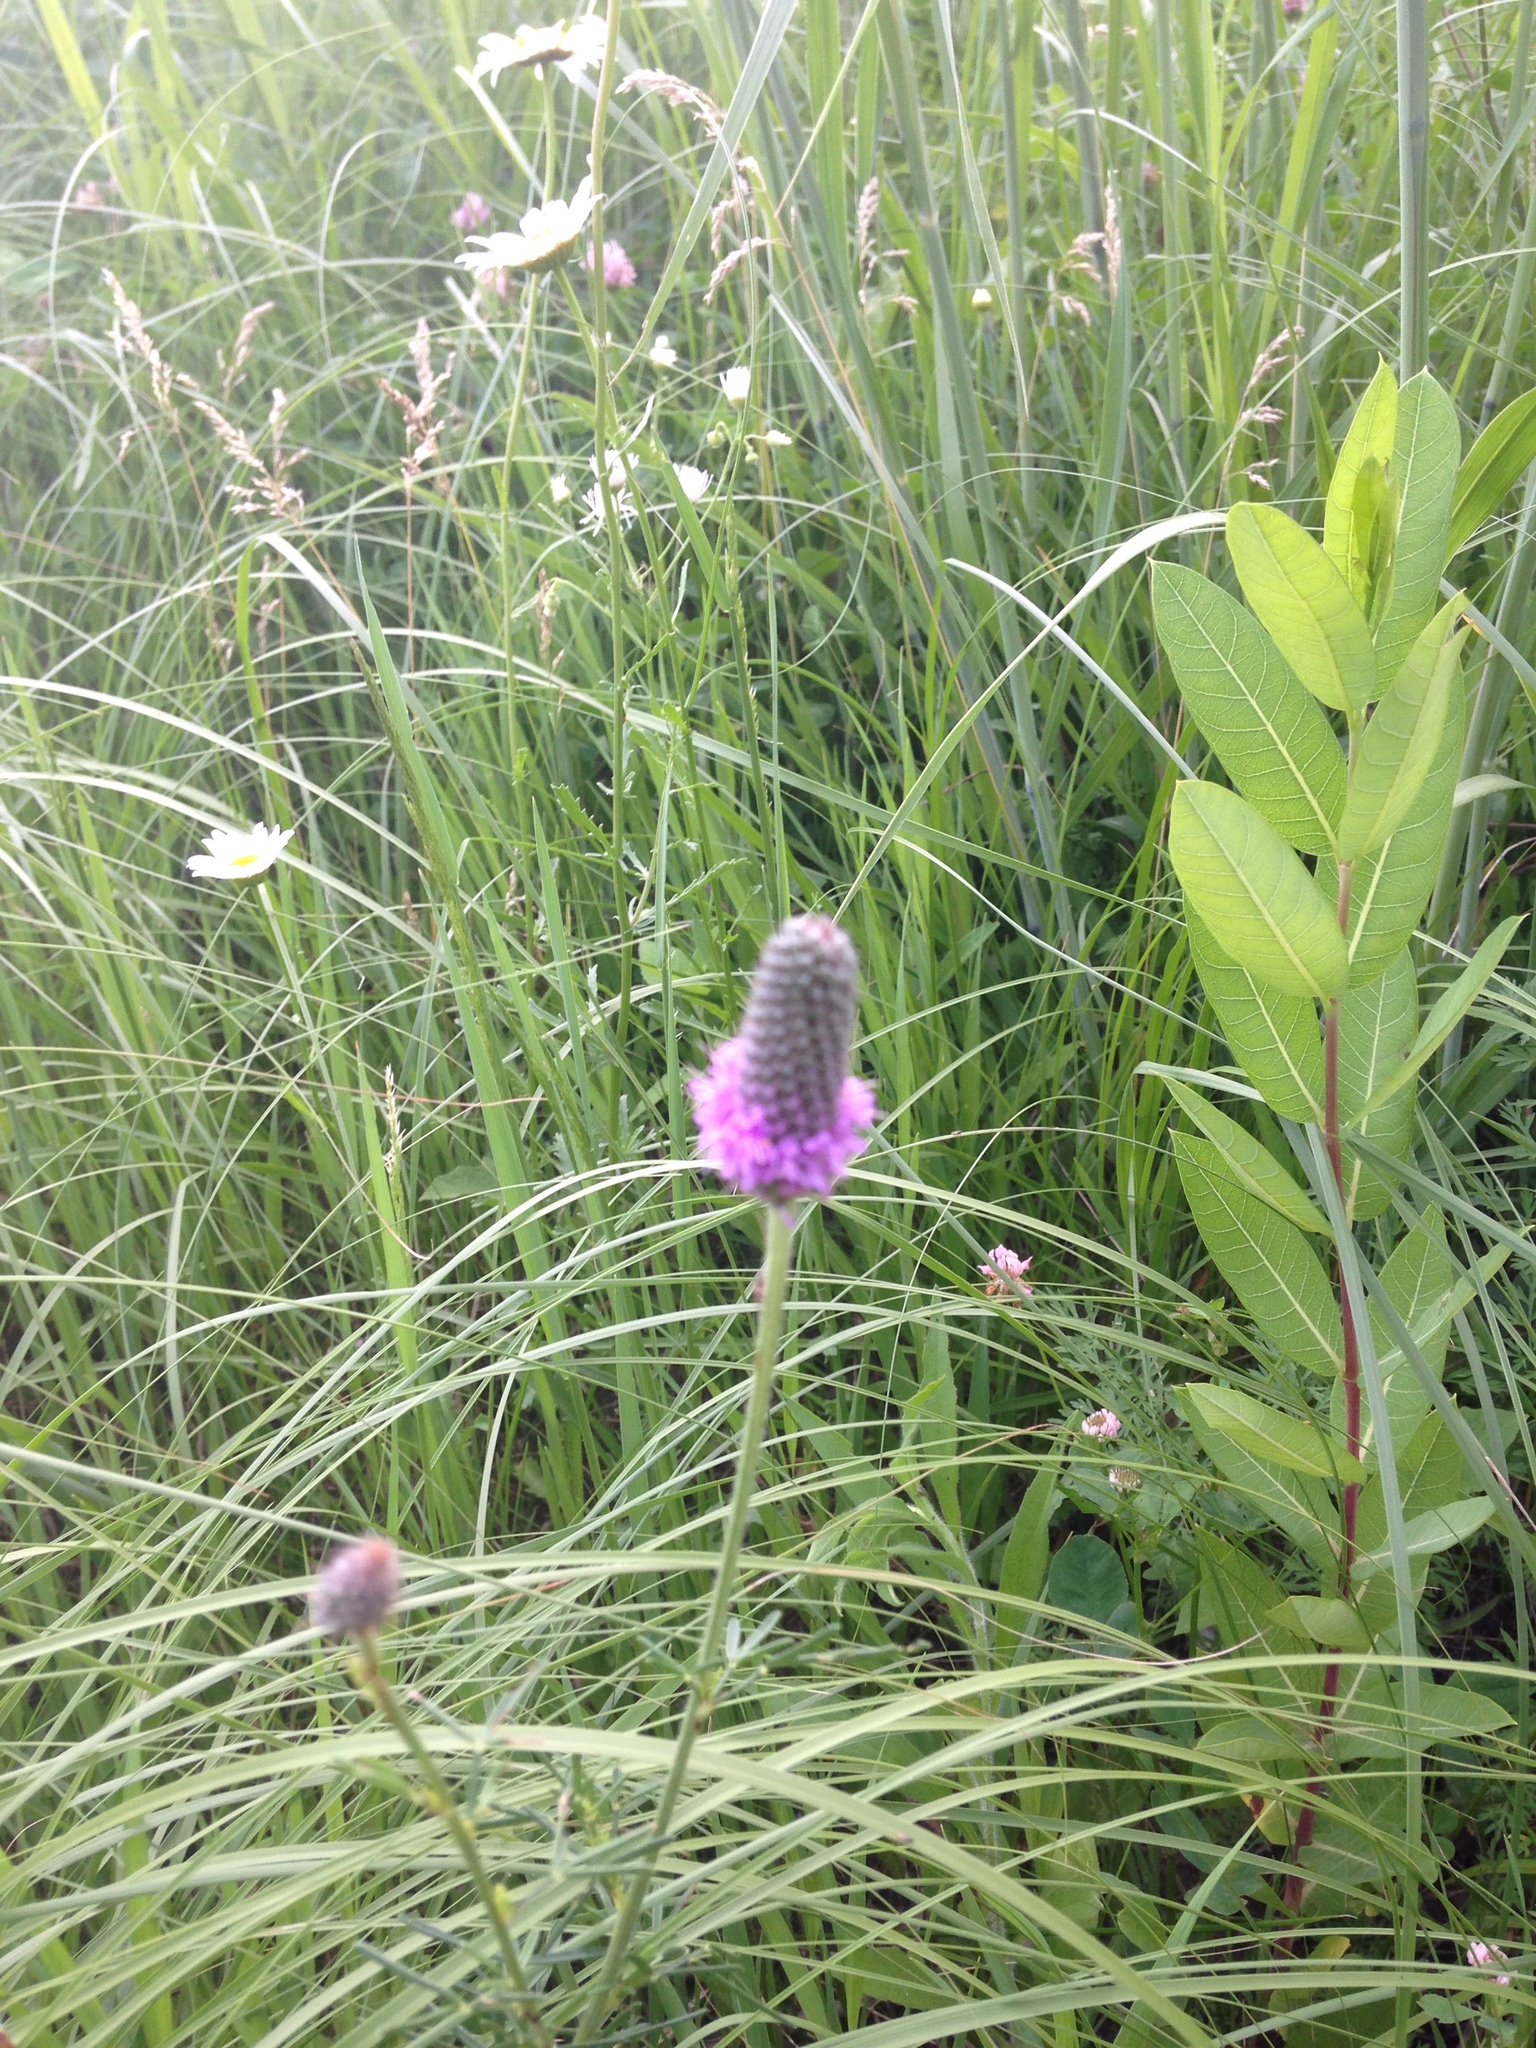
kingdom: Plantae
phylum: Tracheophyta
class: Magnoliopsida
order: Fabales
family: Fabaceae
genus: Dalea
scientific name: Dalea purpurea
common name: Purple prairie-clover
